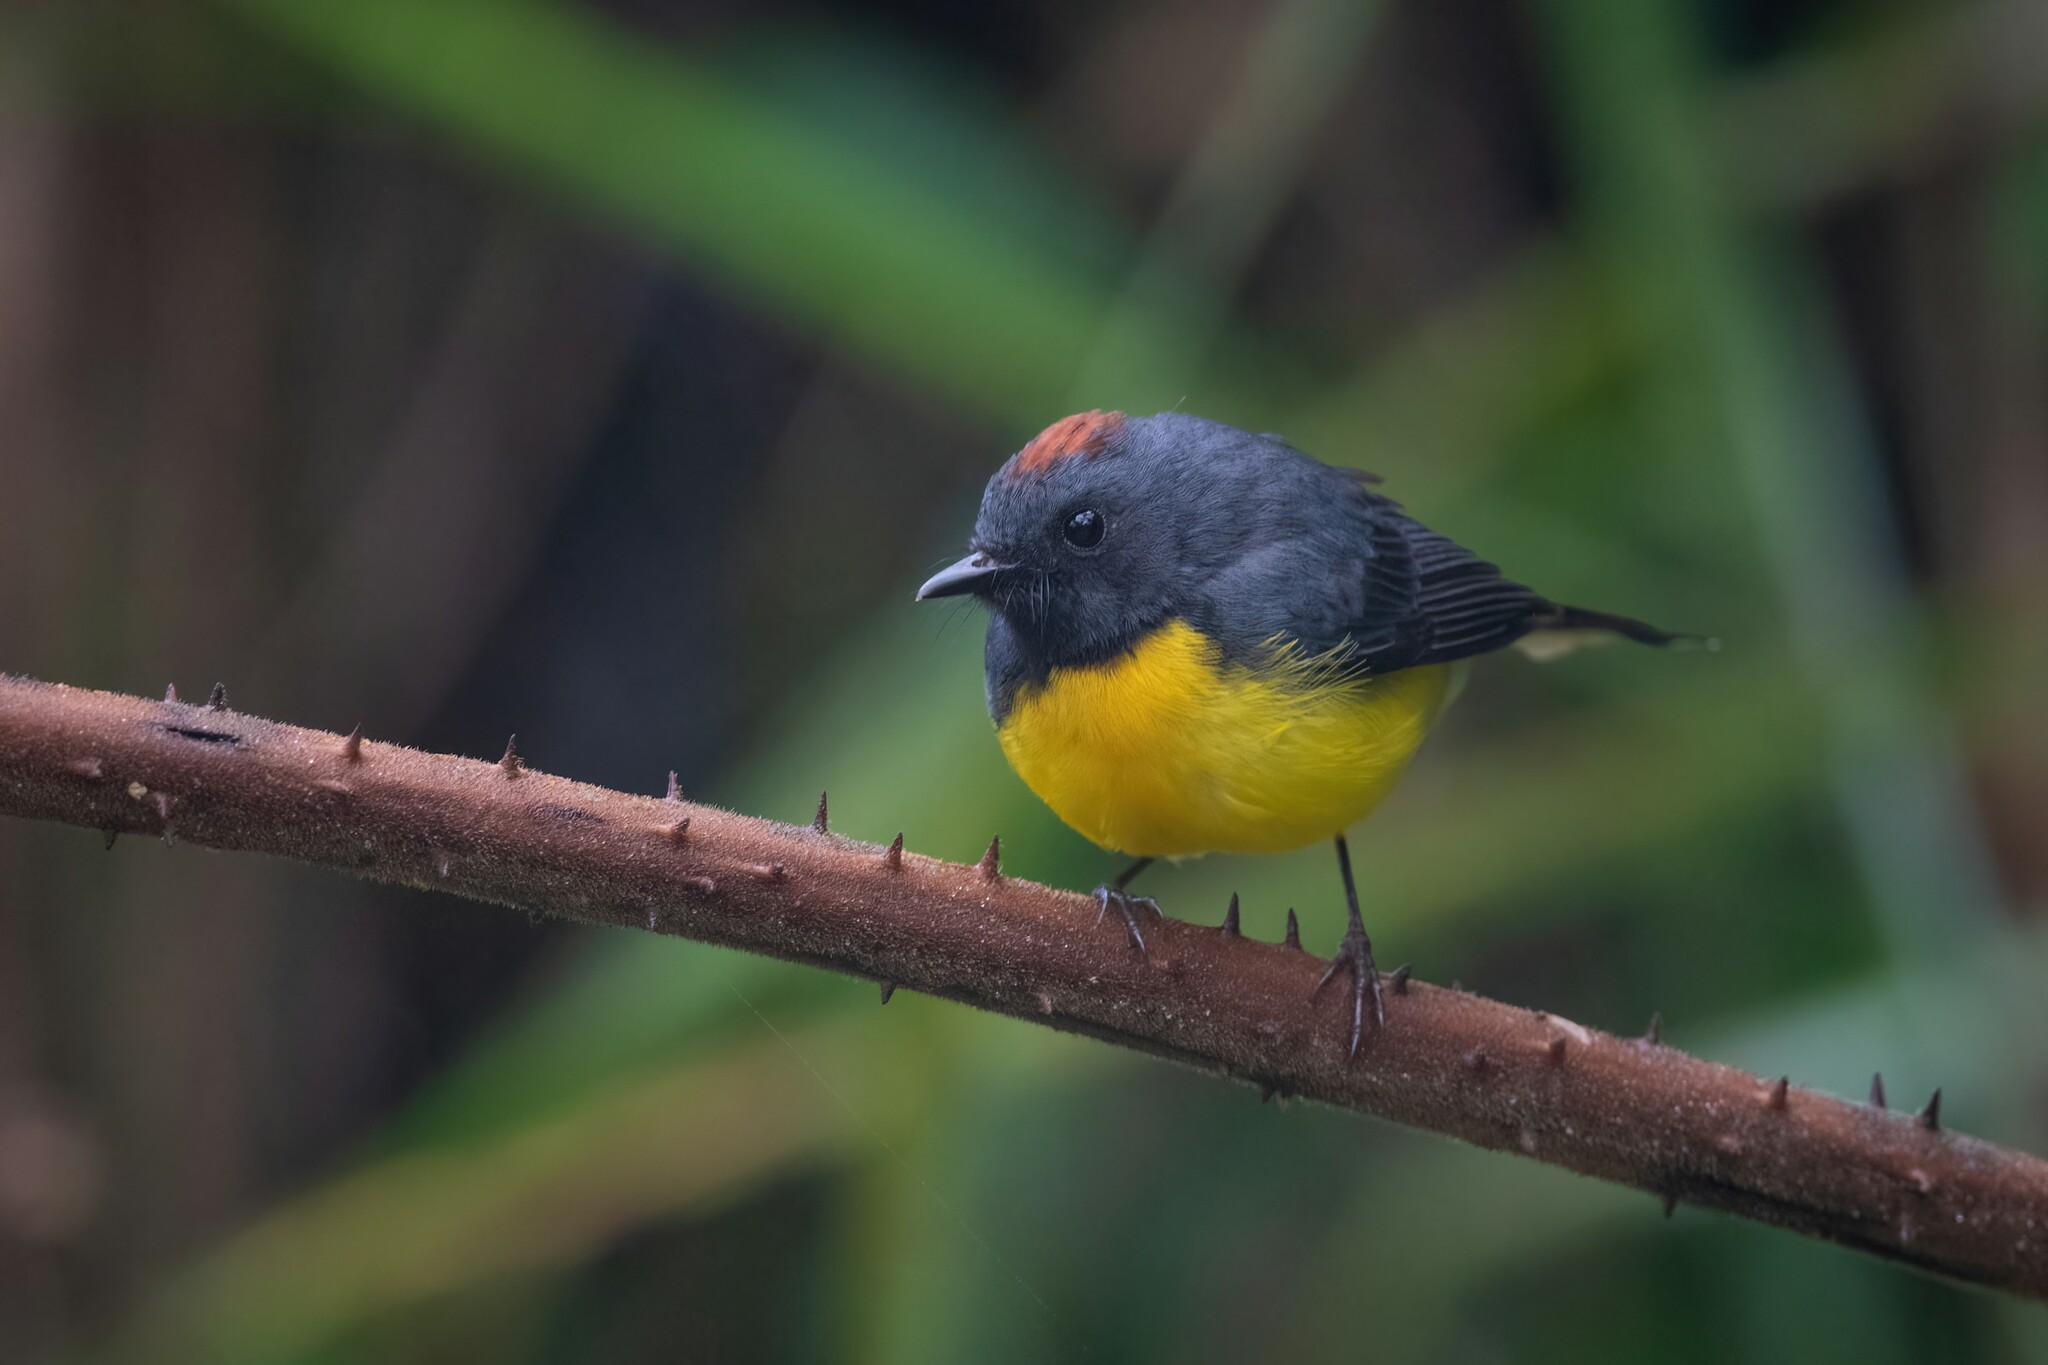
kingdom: Animalia
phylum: Chordata
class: Aves
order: Passeriformes
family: Parulidae
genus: Myioborus
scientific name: Myioborus miniatus
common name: Slate-throated redstart
